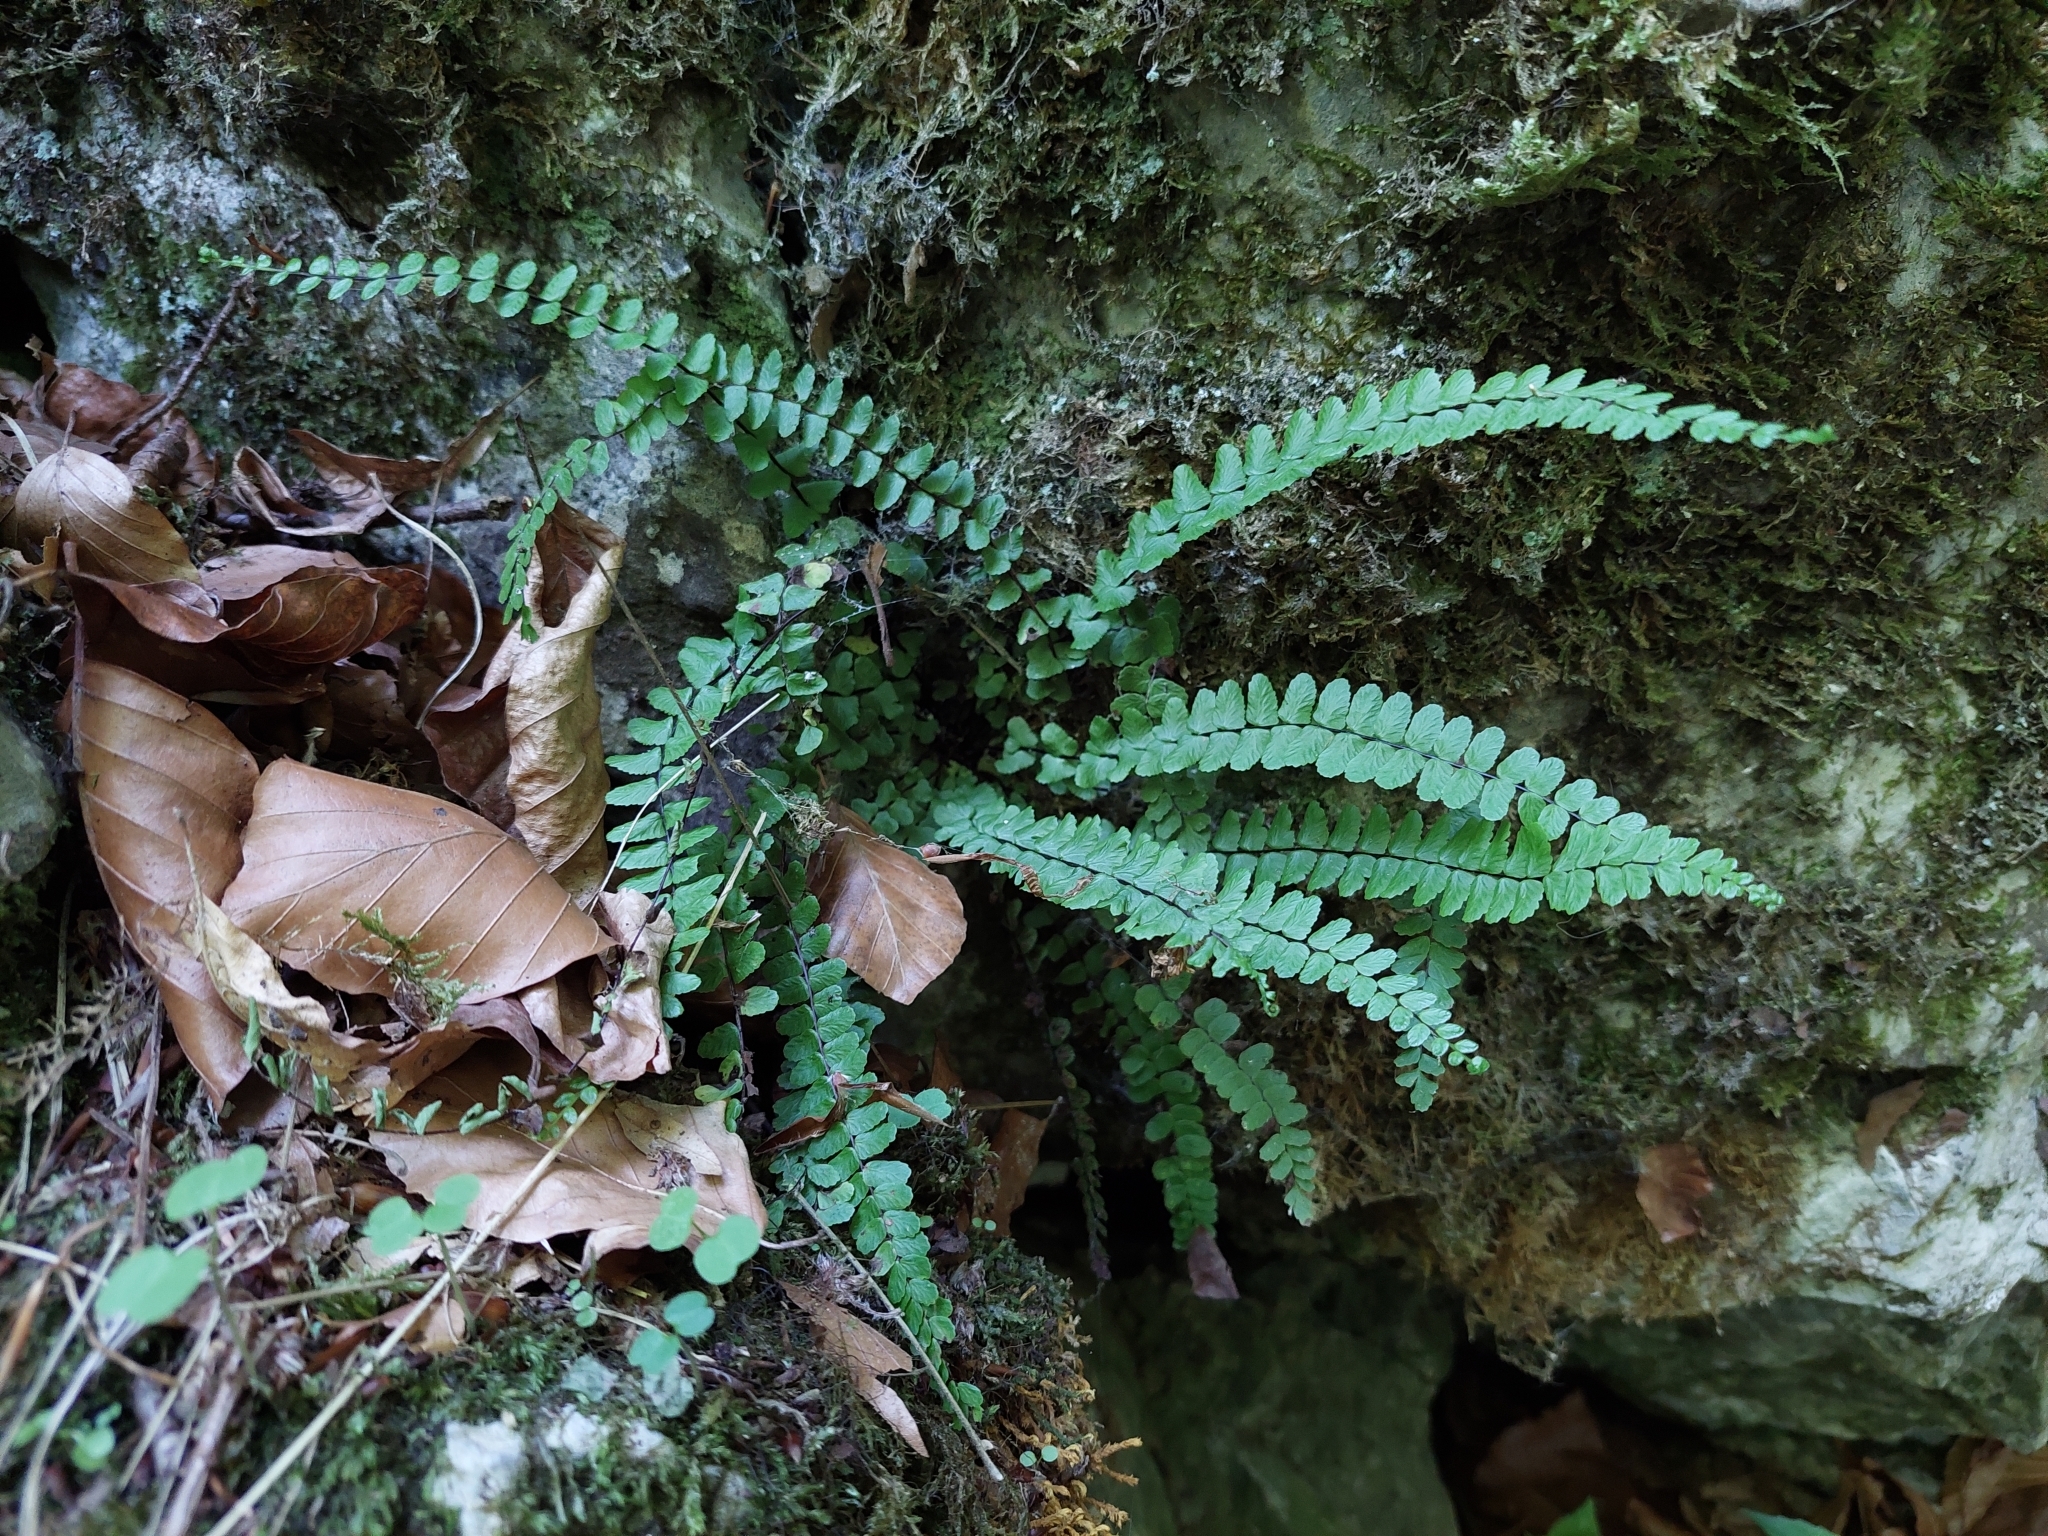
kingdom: Plantae
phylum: Tracheophyta
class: Polypodiopsida
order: Polypodiales
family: Aspleniaceae
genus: Asplenium
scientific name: Asplenium trichomanes
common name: Maidenhair spleenwort
